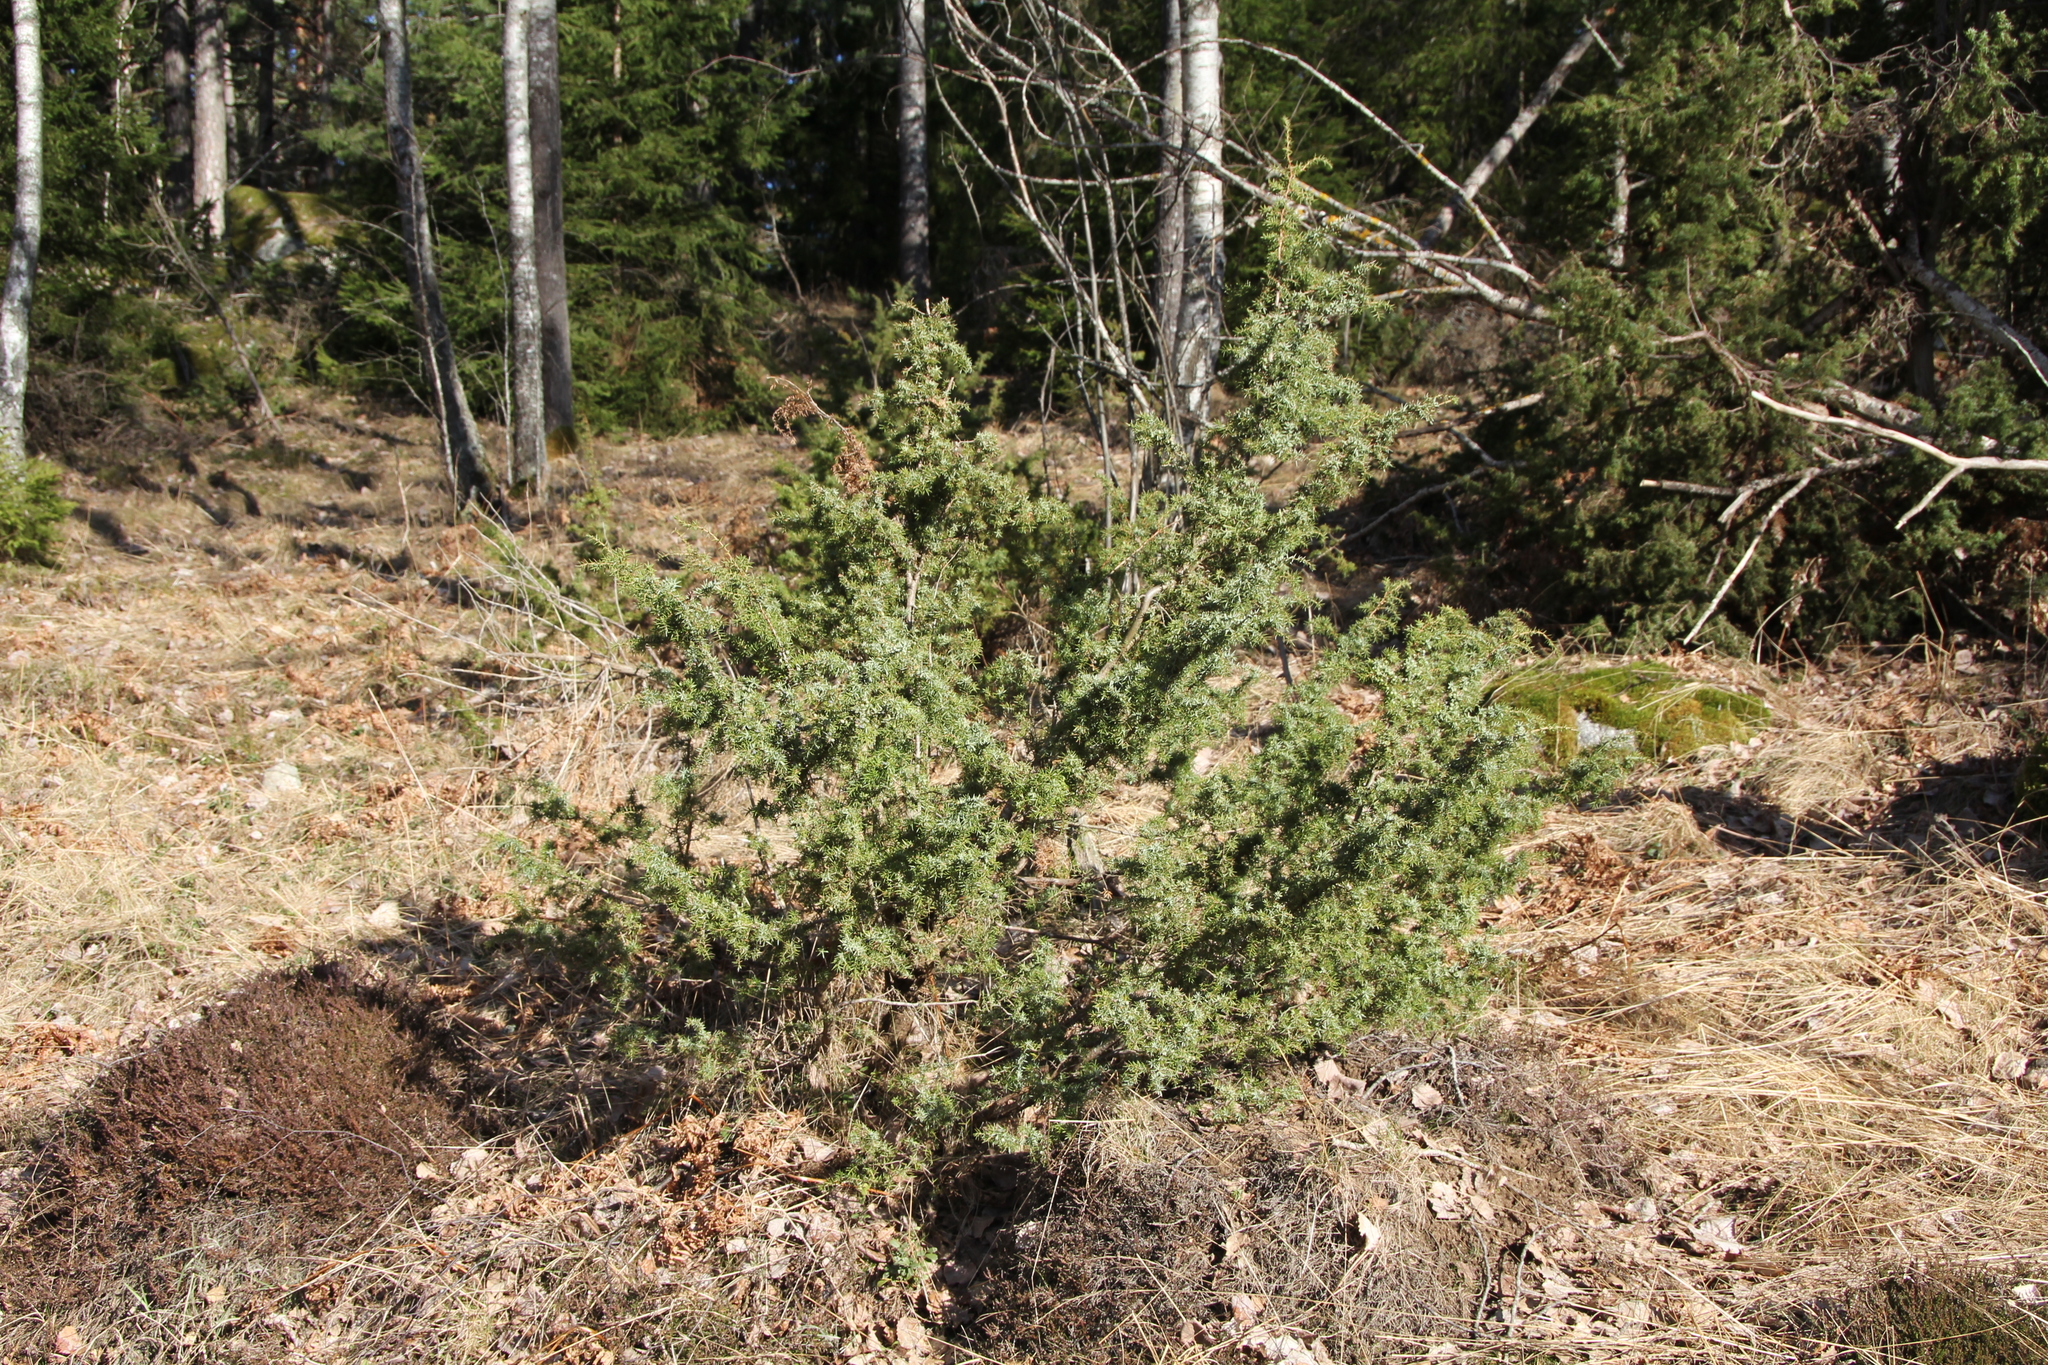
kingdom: Plantae
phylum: Tracheophyta
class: Pinopsida
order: Pinales
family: Cupressaceae
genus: Juniperus
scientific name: Juniperus communis
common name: Common juniper
